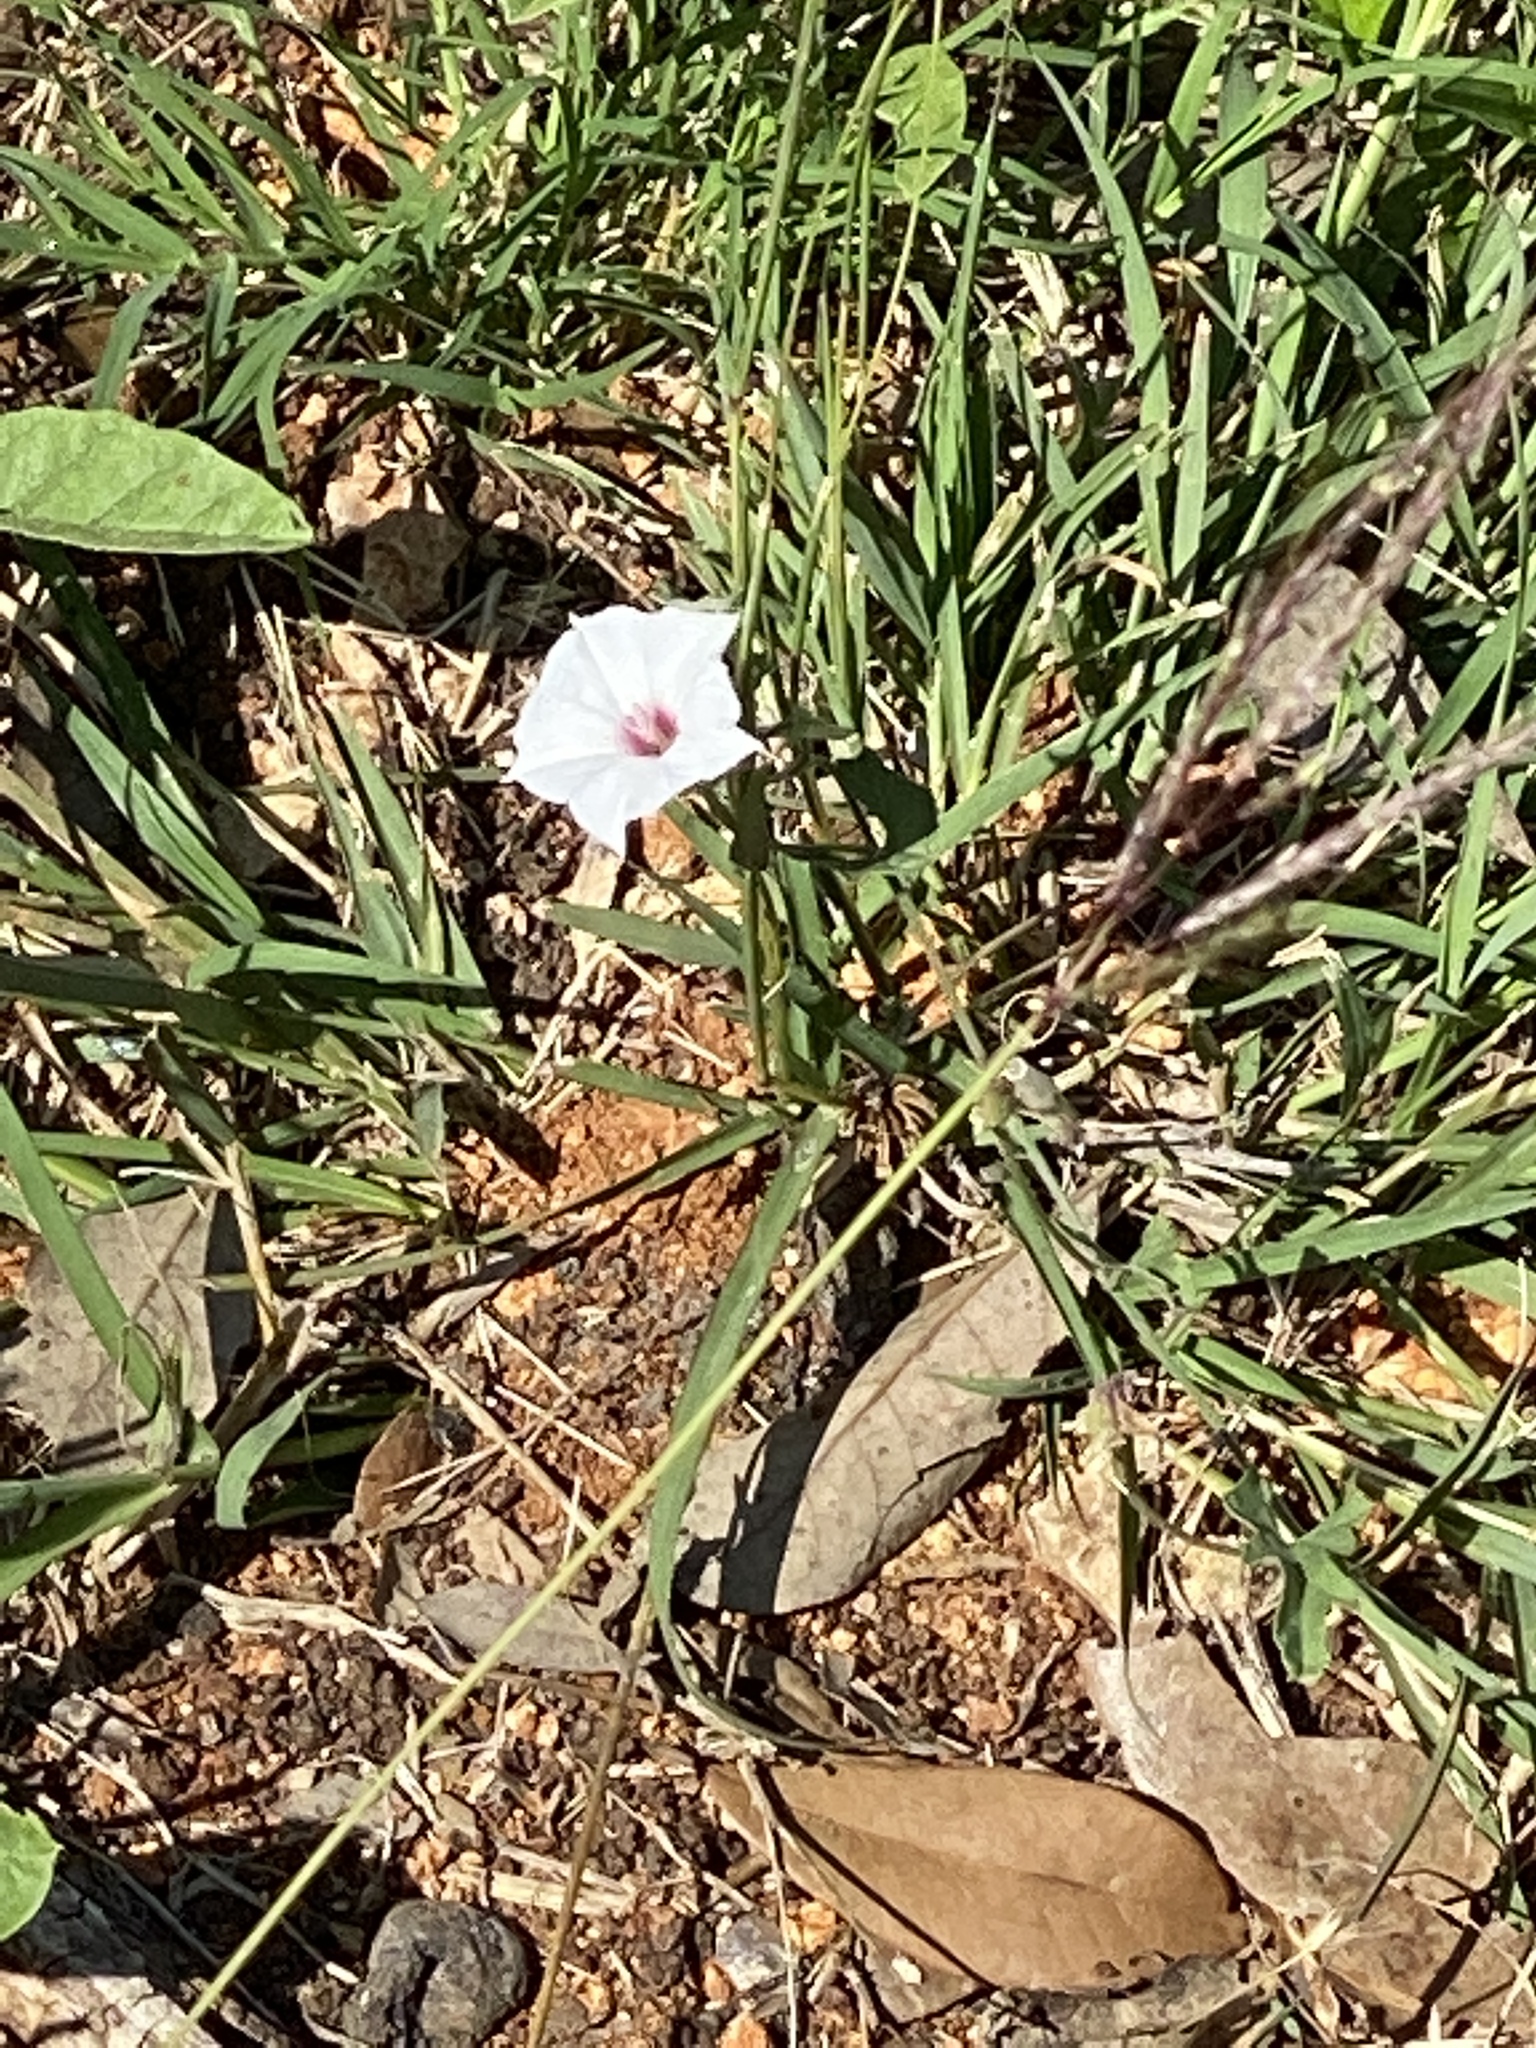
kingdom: Plantae
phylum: Tracheophyta
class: Magnoliopsida
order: Solanales
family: Convolvulaceae
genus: Convolvulus
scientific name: Convolvulus equitans
